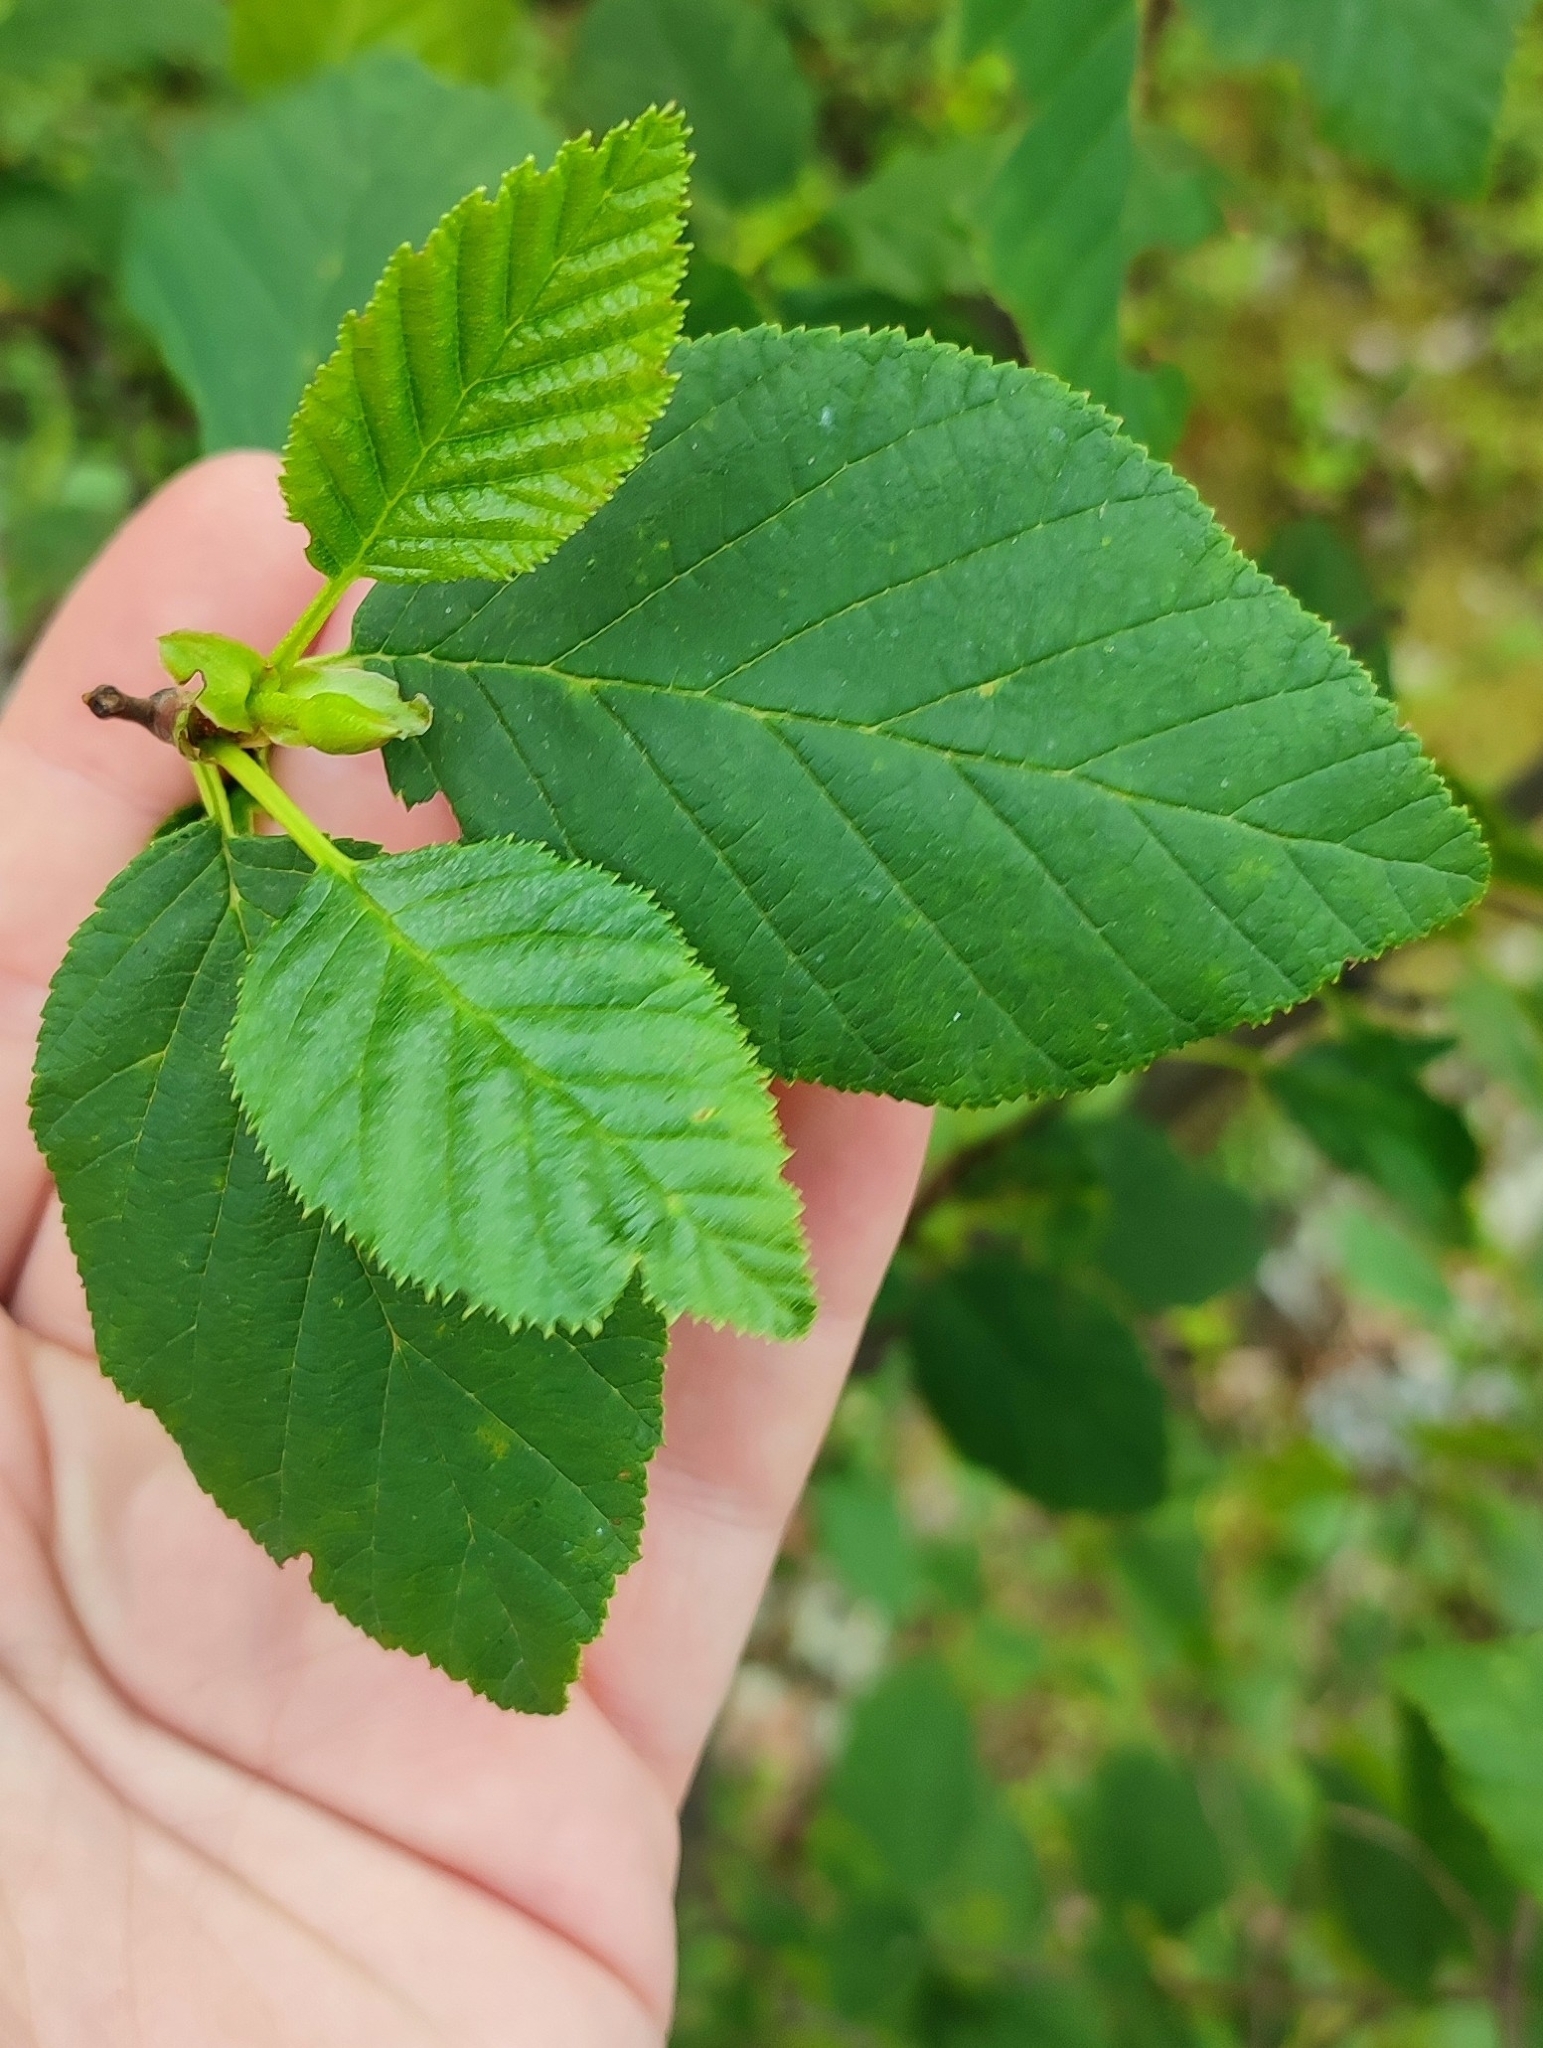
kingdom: Plantae
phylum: Tracheophyta
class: Magnoliopsida
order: Fagales
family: Betulaceae
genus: Alnus
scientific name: Alnus alnobetula
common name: Green alder
